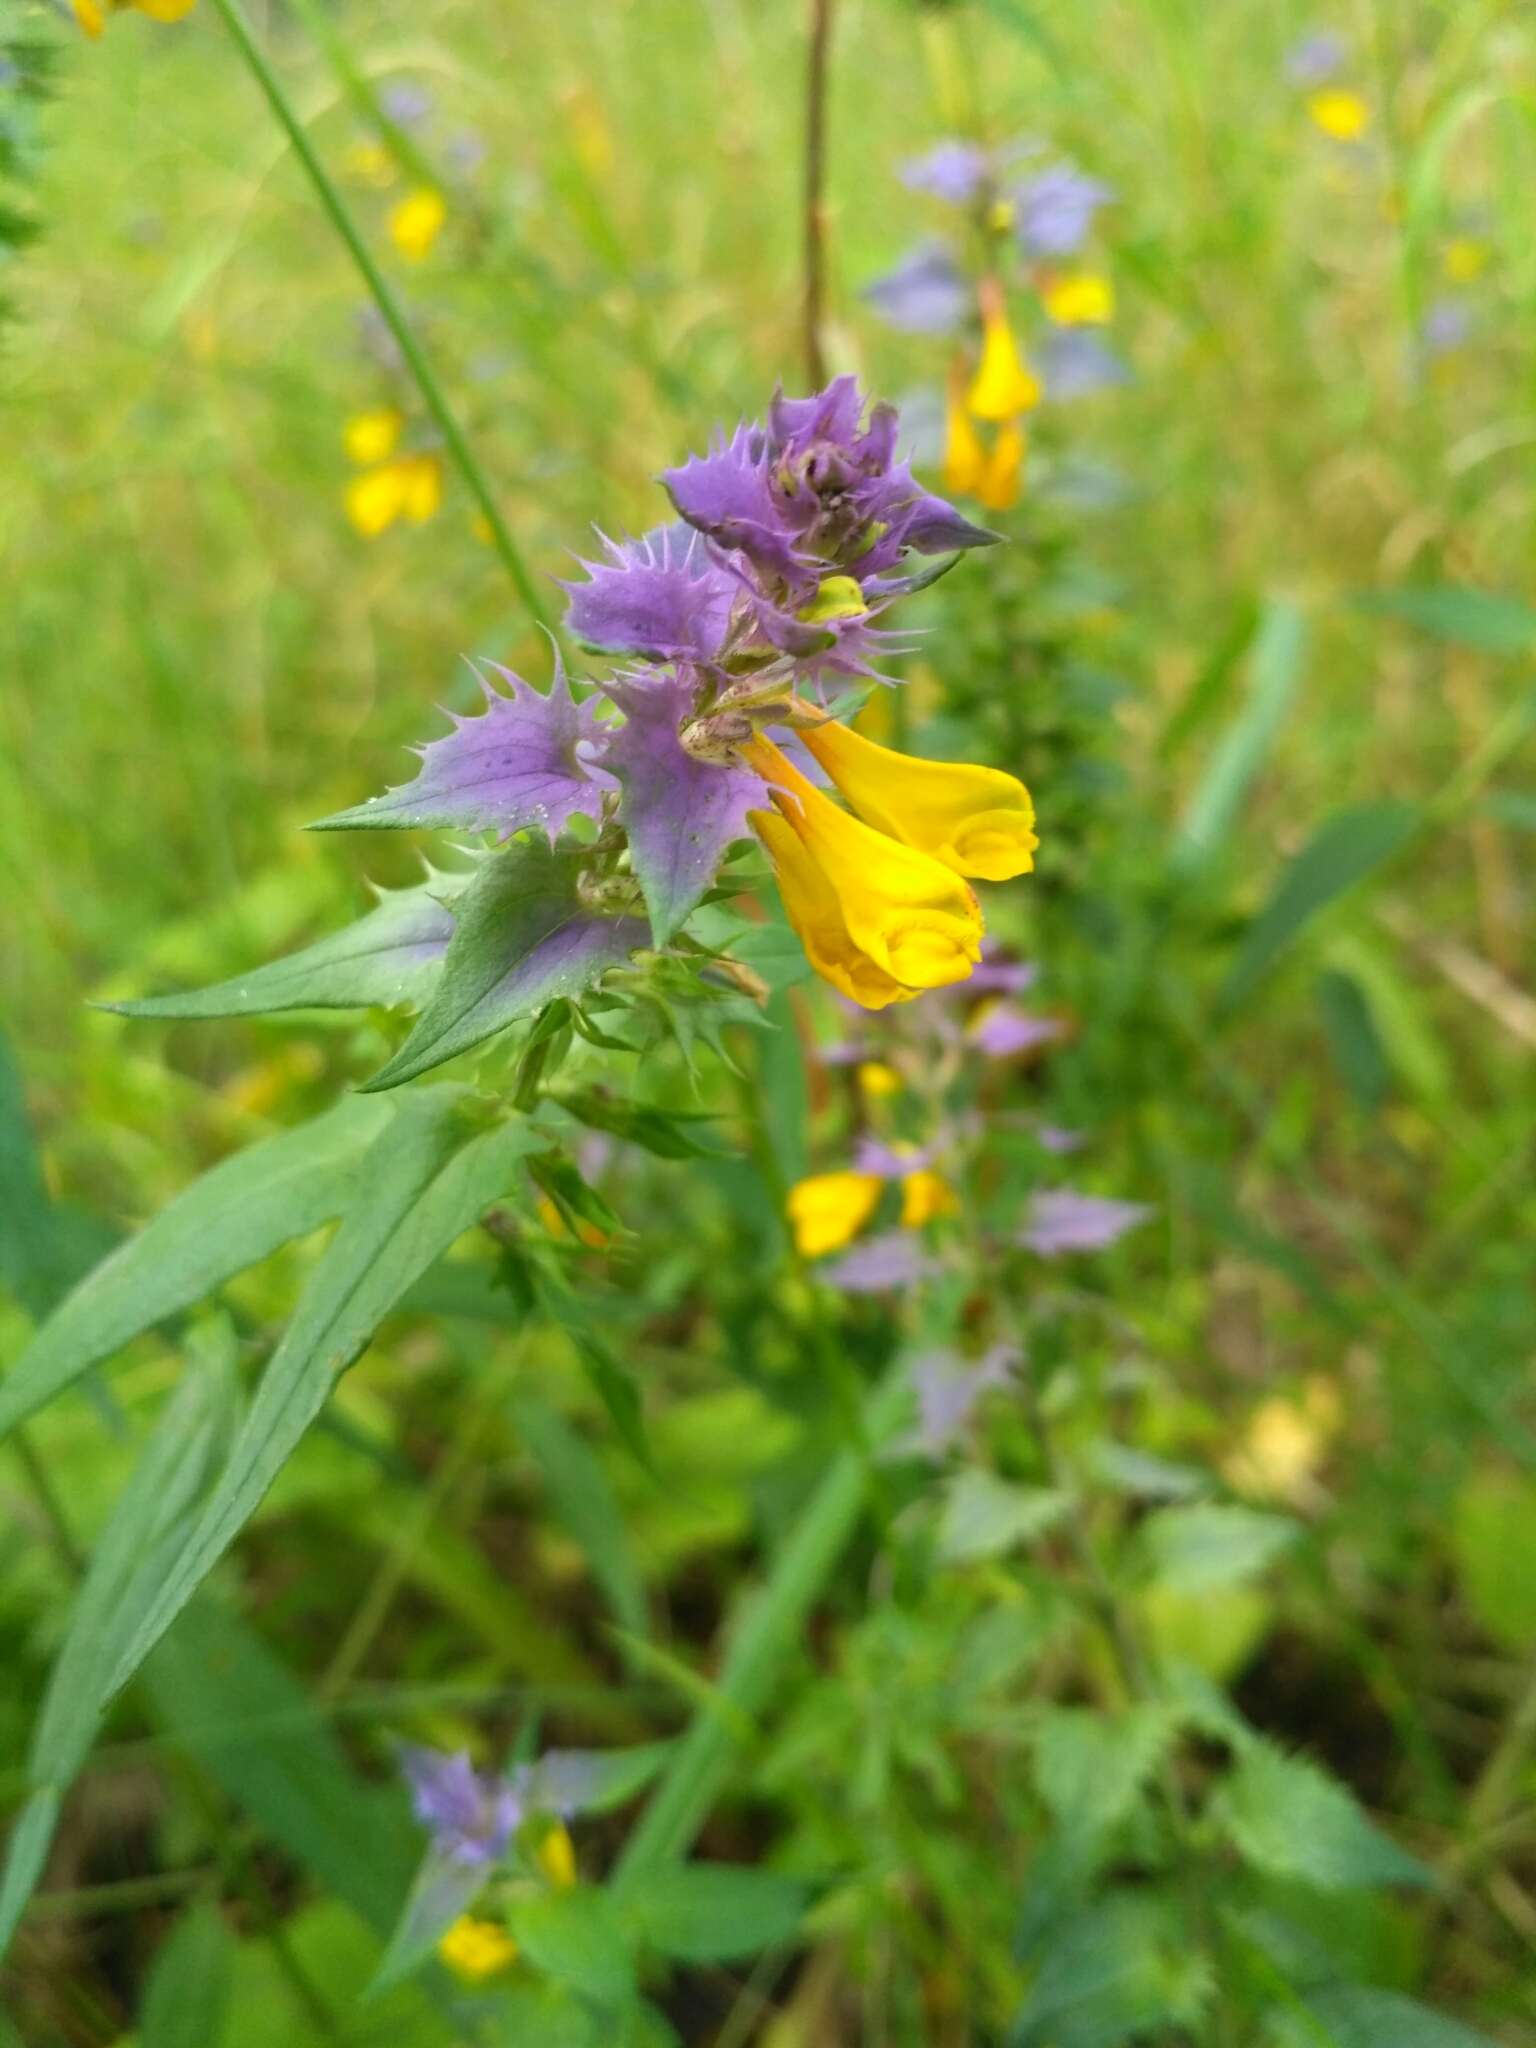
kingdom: Plantae
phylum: Tracheophyta
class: Magnoliopsida
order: Lamiales
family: Orobanchaceae
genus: Melampyrum
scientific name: Melampyrum nemorosum
